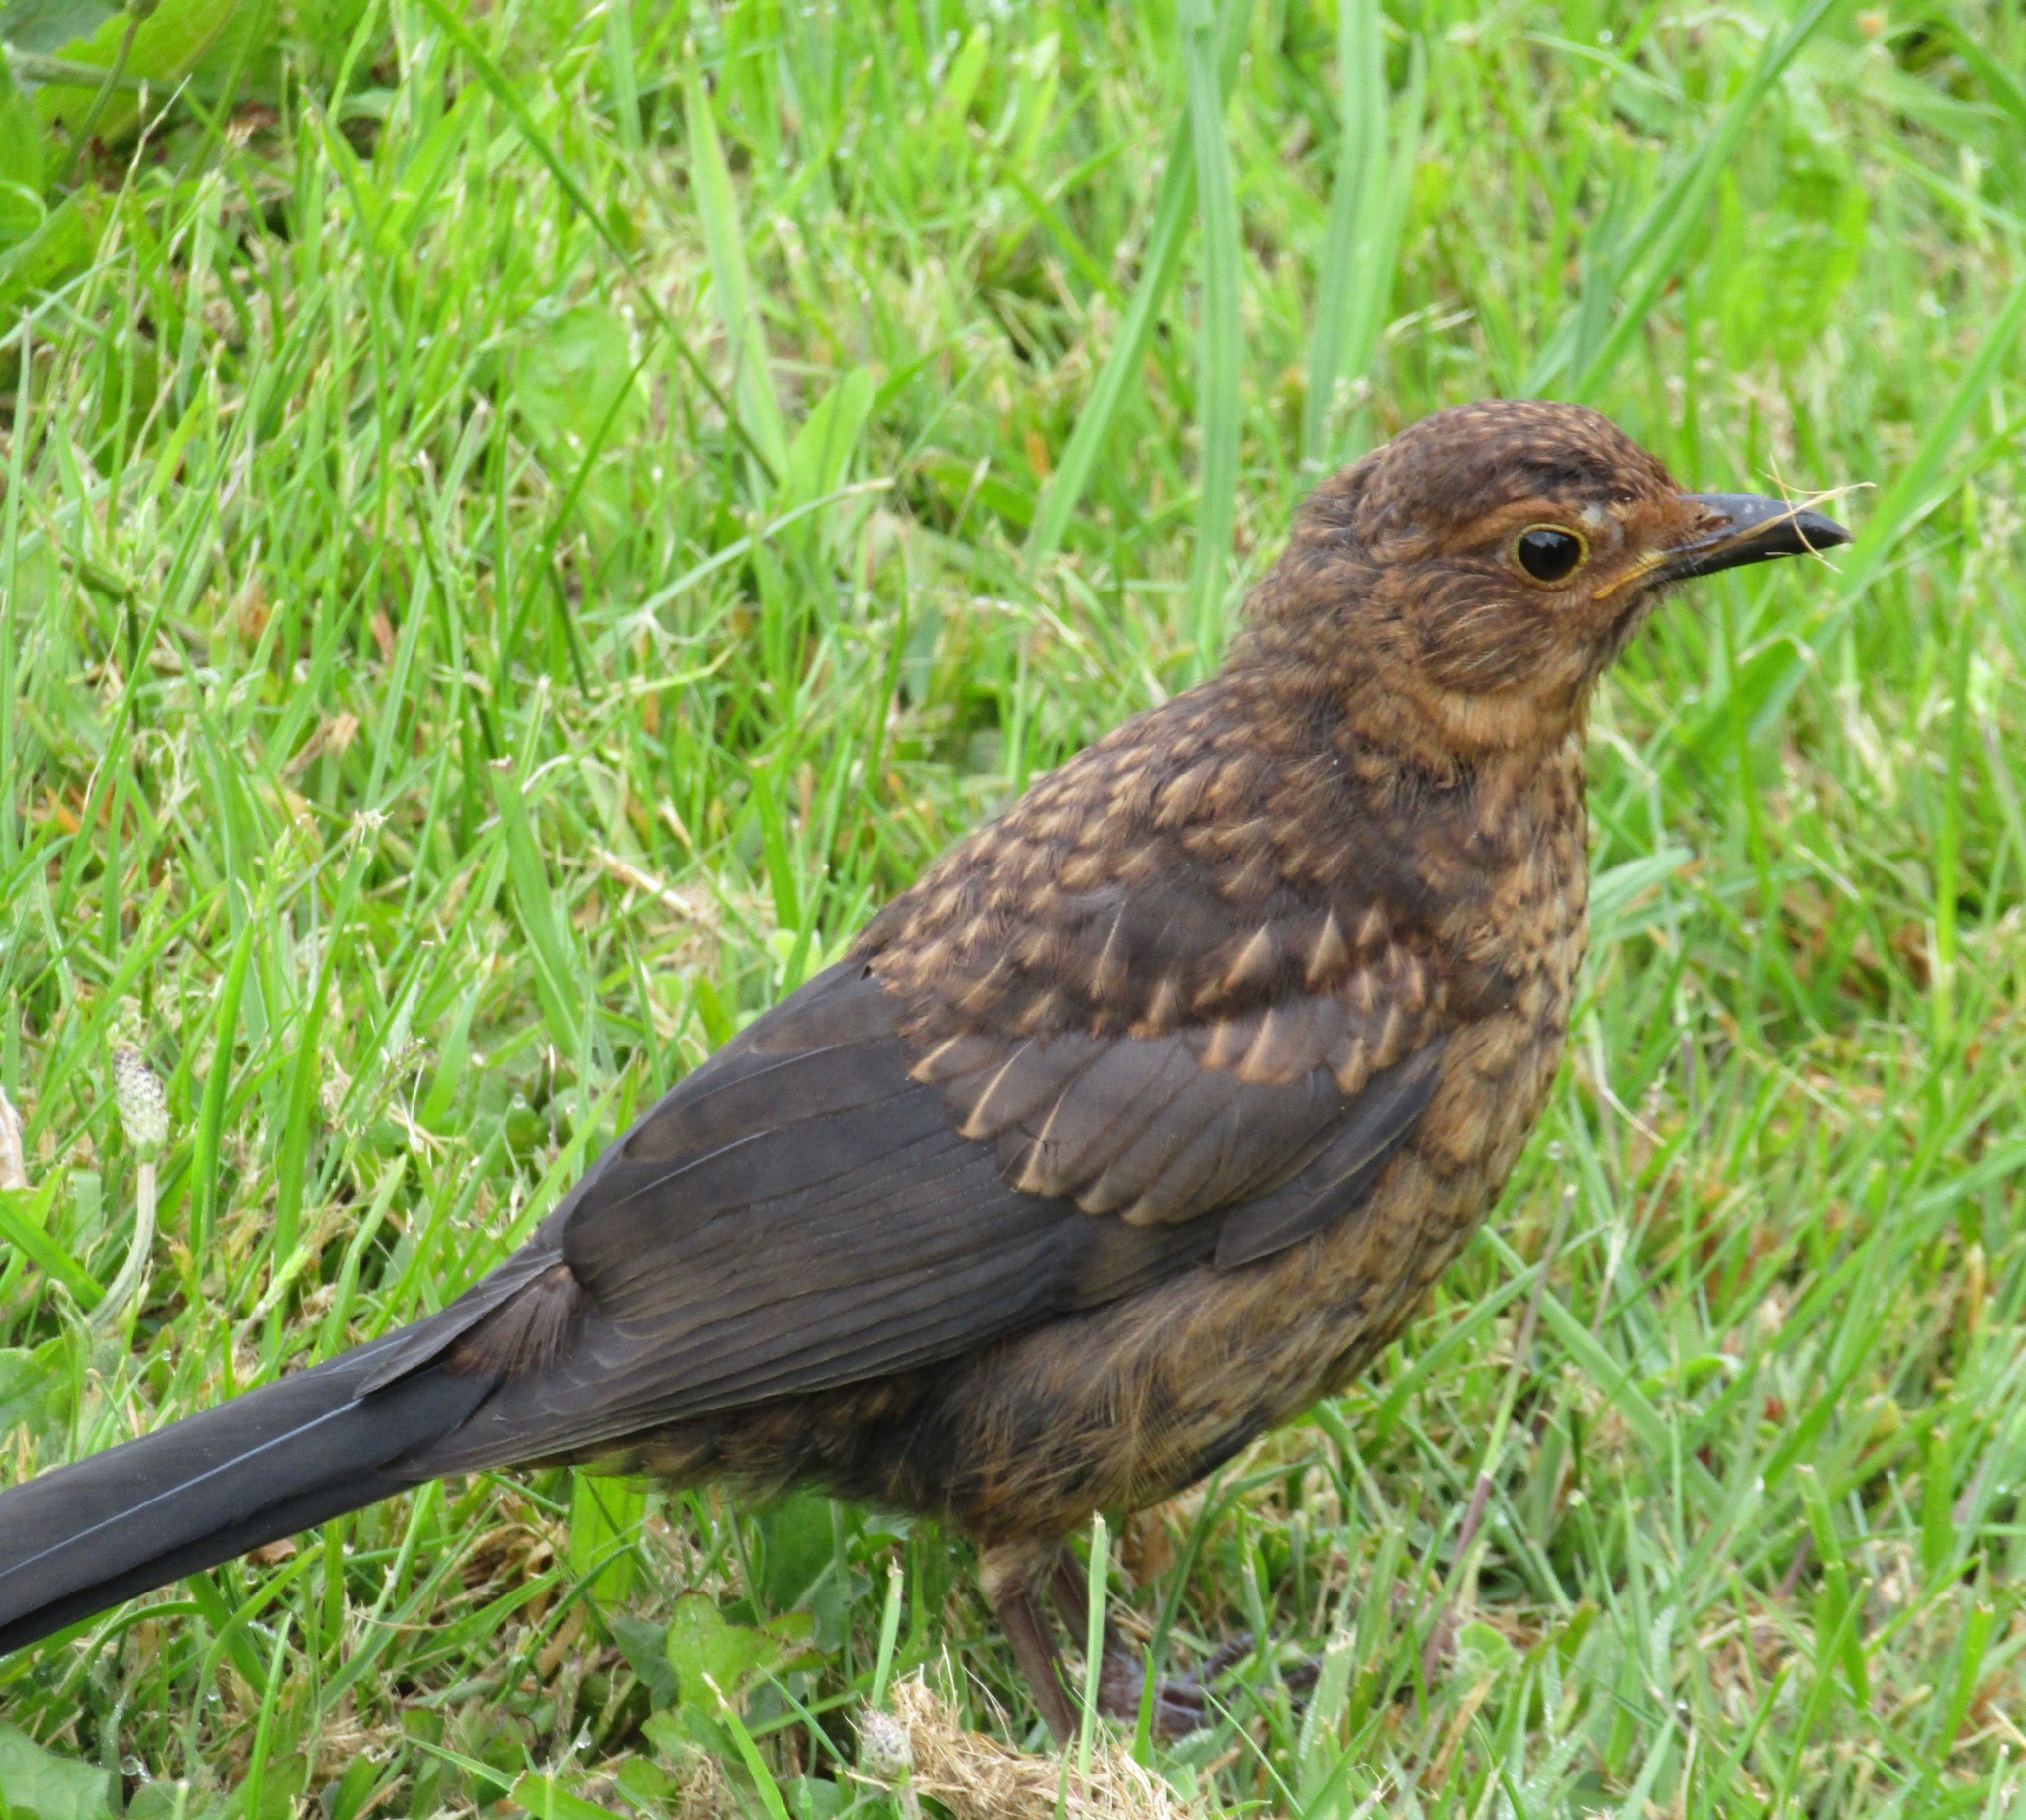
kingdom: Animalia
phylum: Chordata
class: Aves
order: Passeriformes
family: Turdidae
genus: Turdus
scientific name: Turdus merula
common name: Common blackbird
